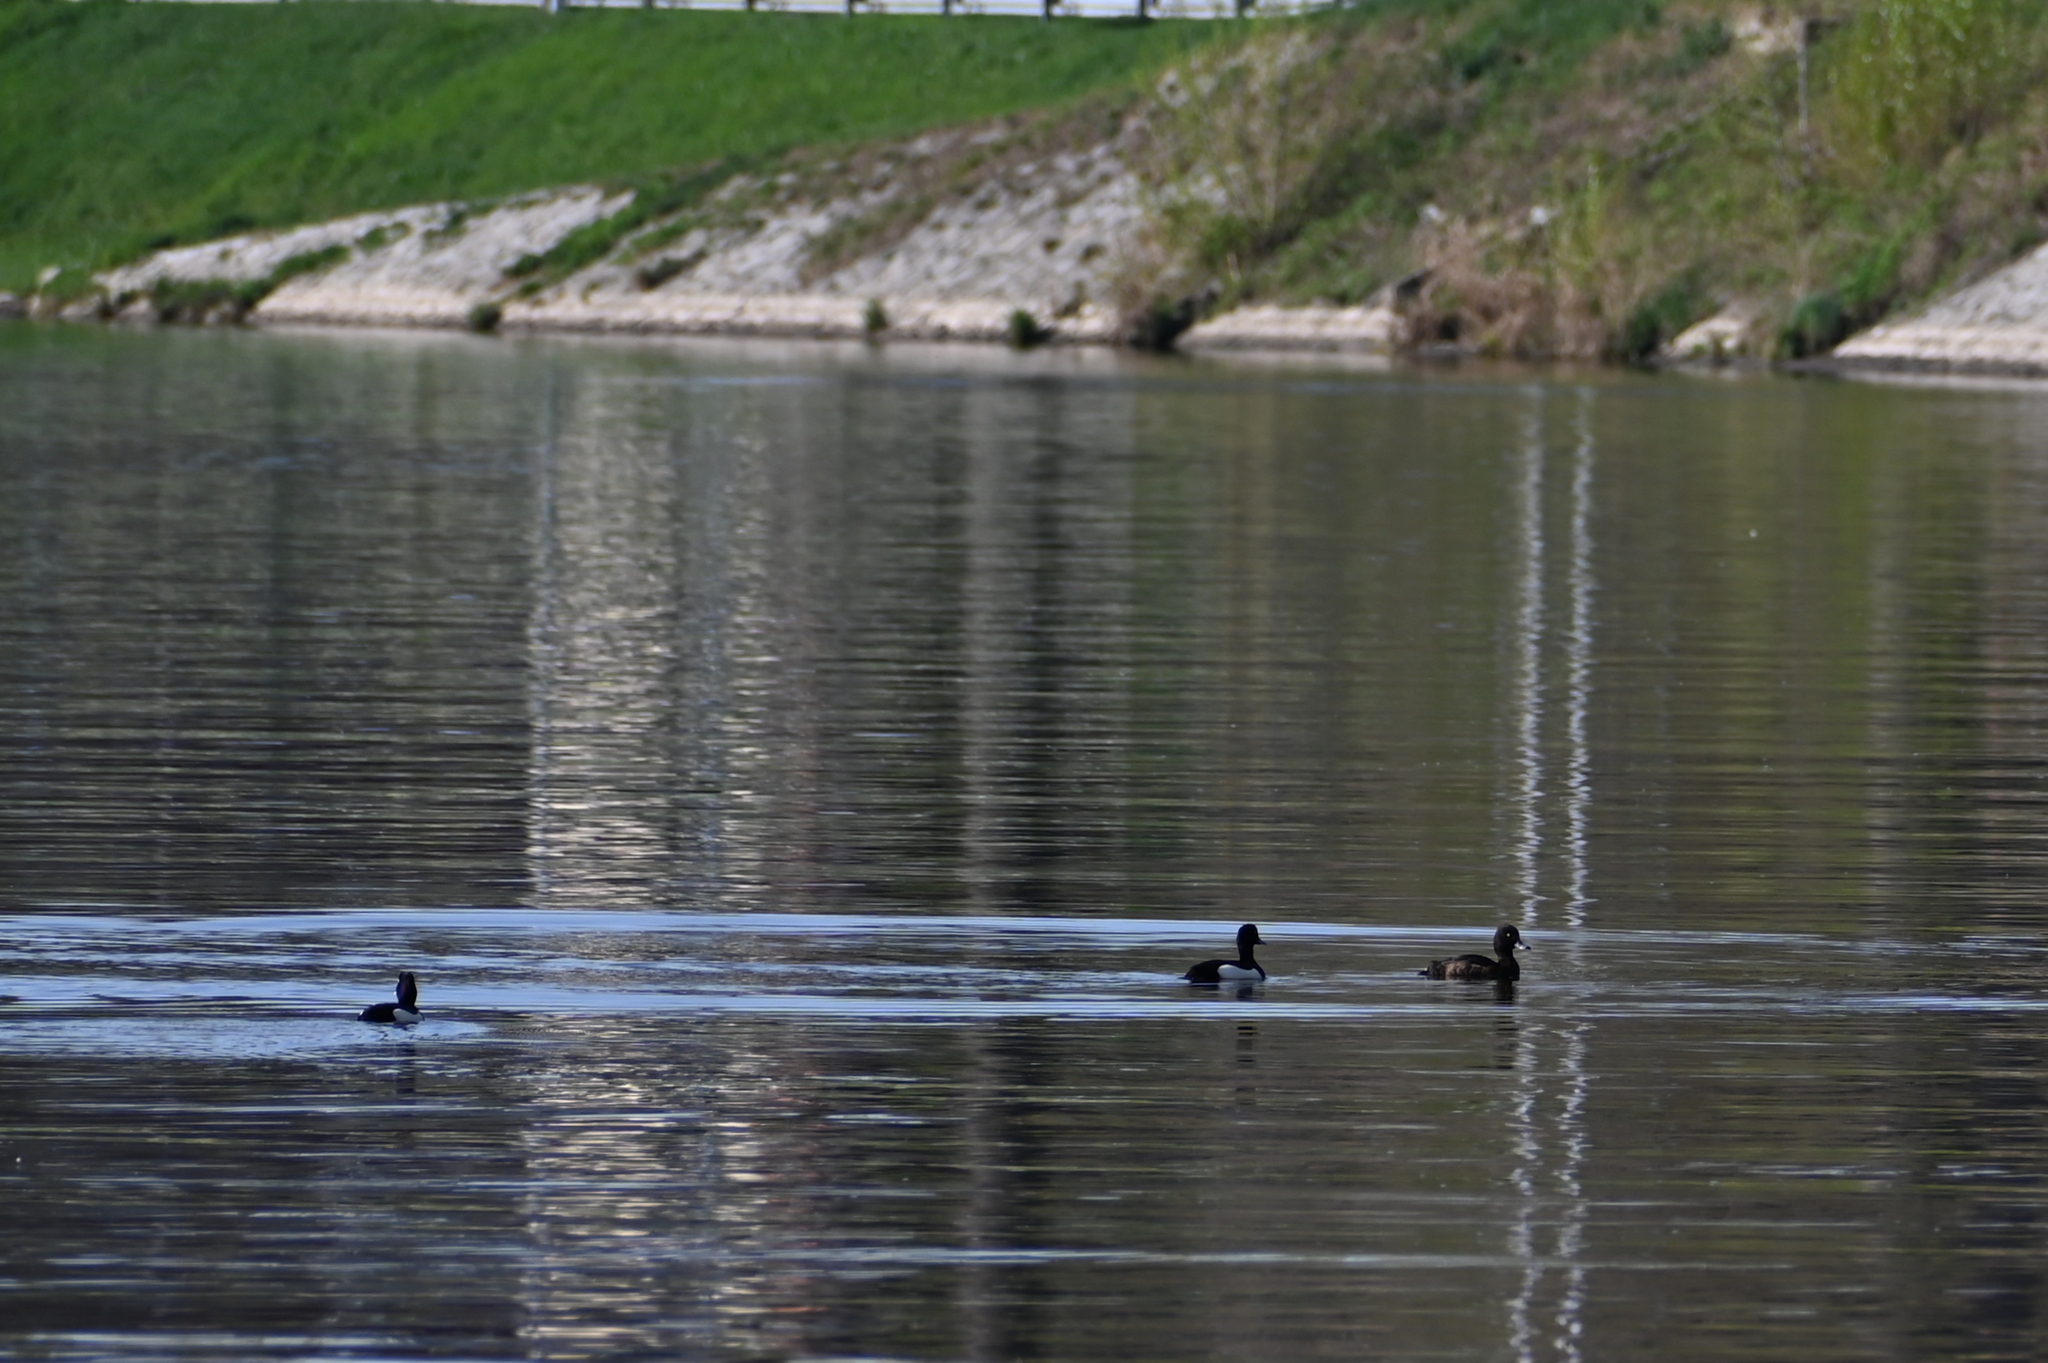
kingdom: Animalia
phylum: Chordata
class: Aves
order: Anseriformes
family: Anatidae
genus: Aythya
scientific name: Aythya fuligula
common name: Tufted duck
